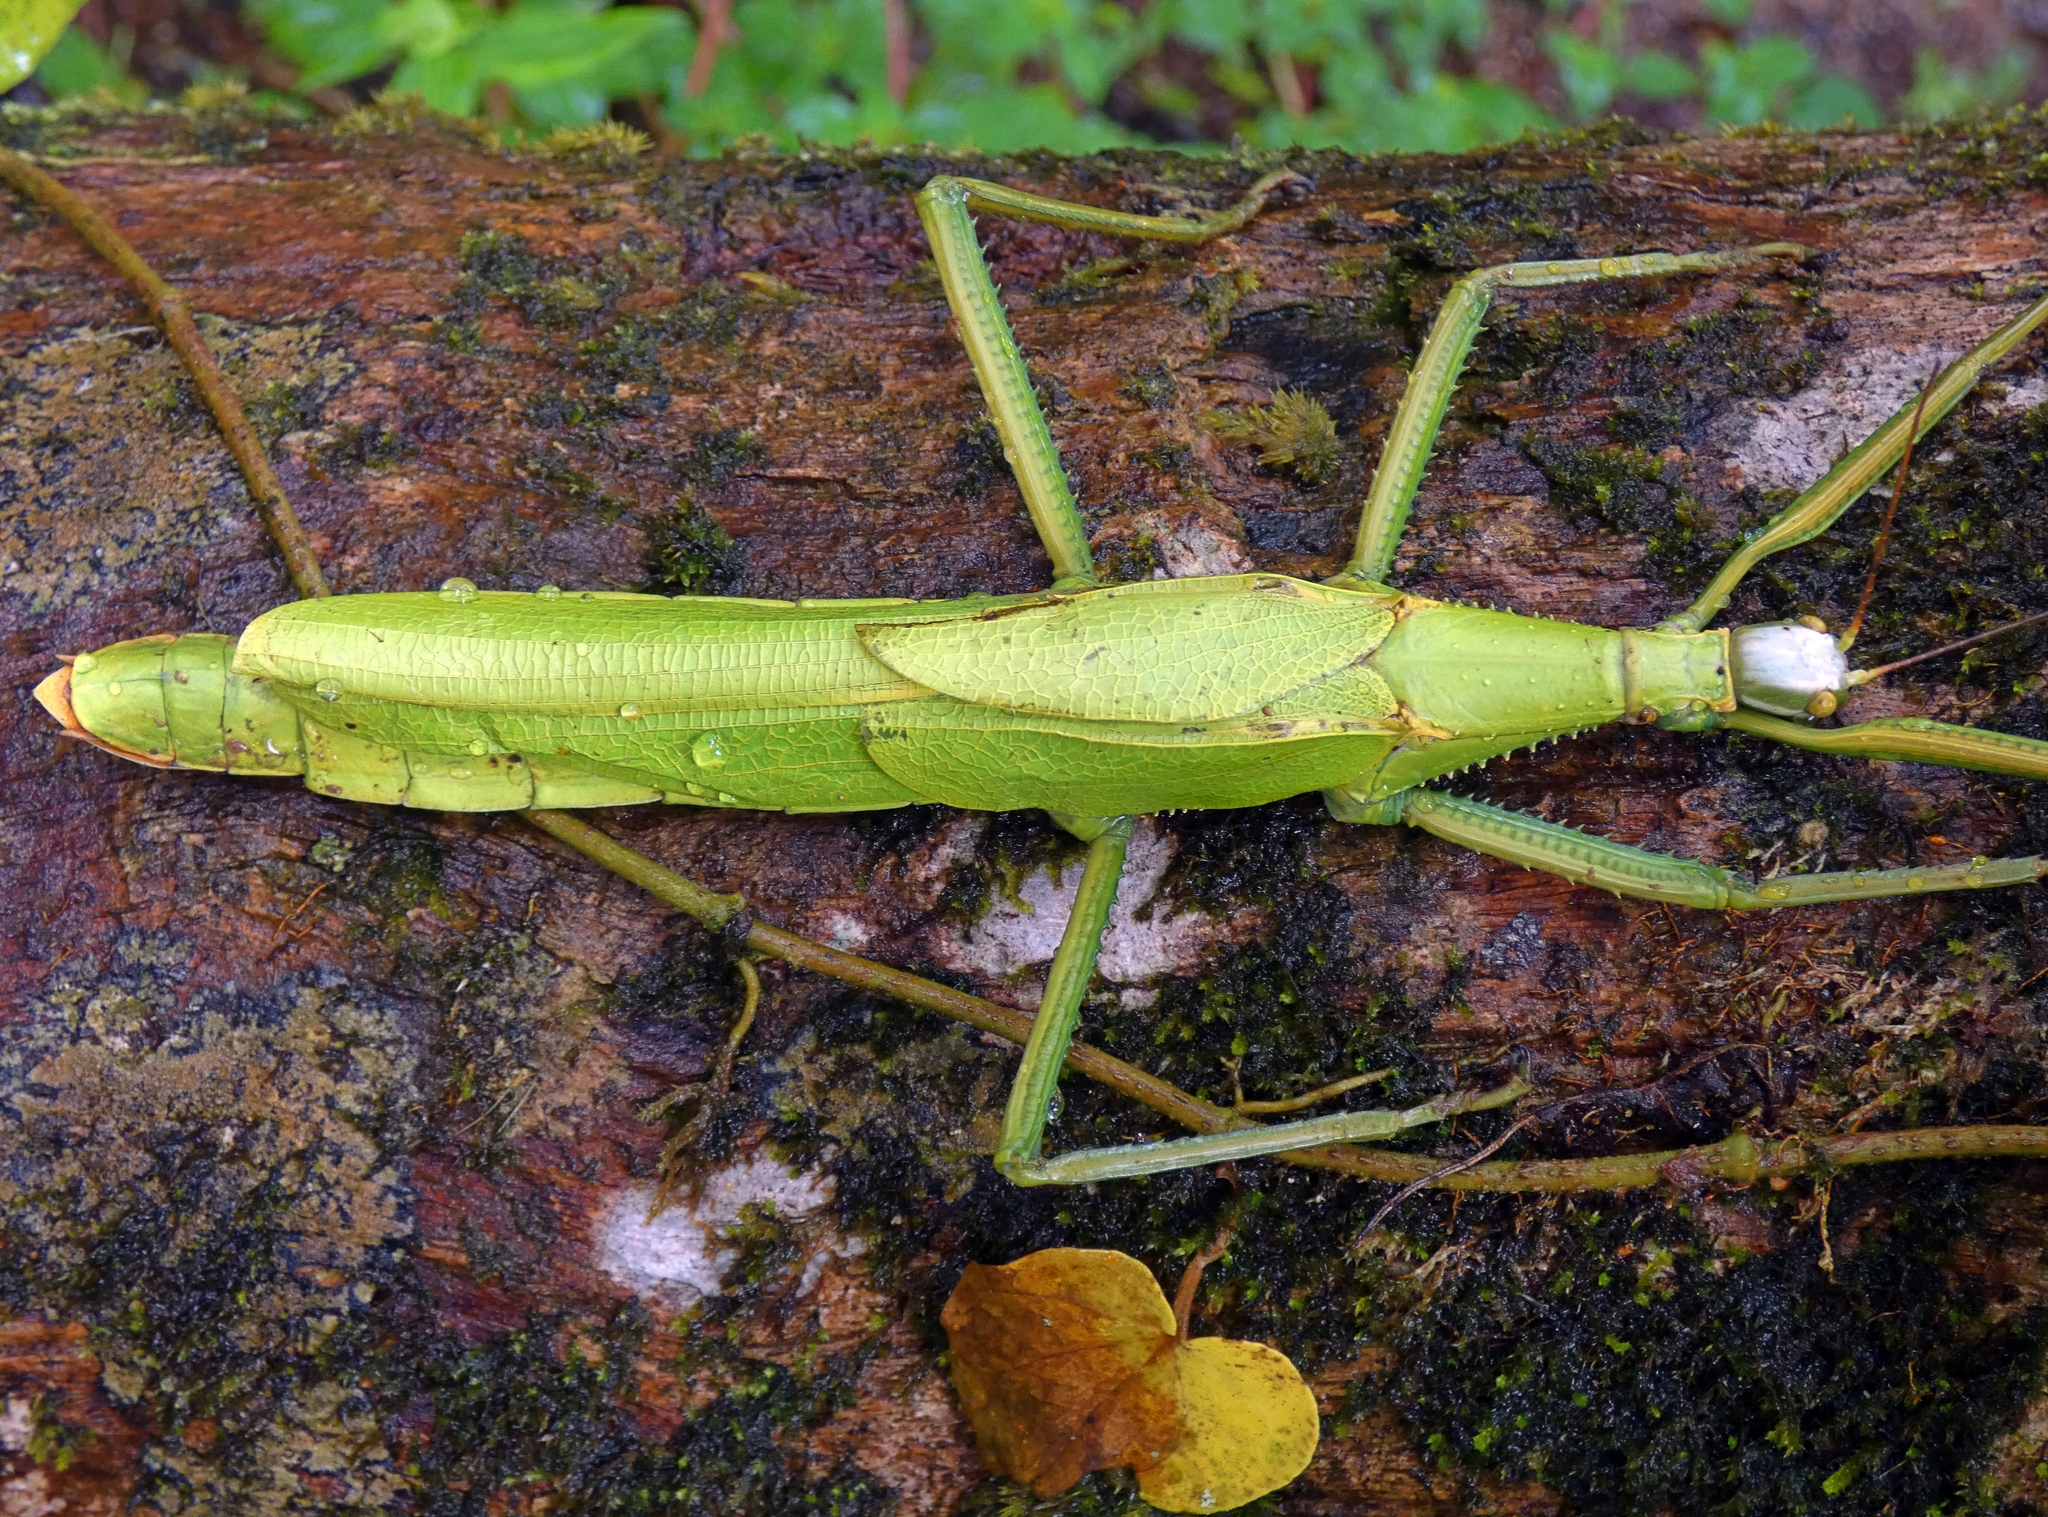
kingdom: Animalia
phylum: Arthropoda
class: Insecta
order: Phasmida
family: Phasmatidae
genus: Malandania
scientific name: Malandania pulchra
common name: Beautiful malanda stick-insect
